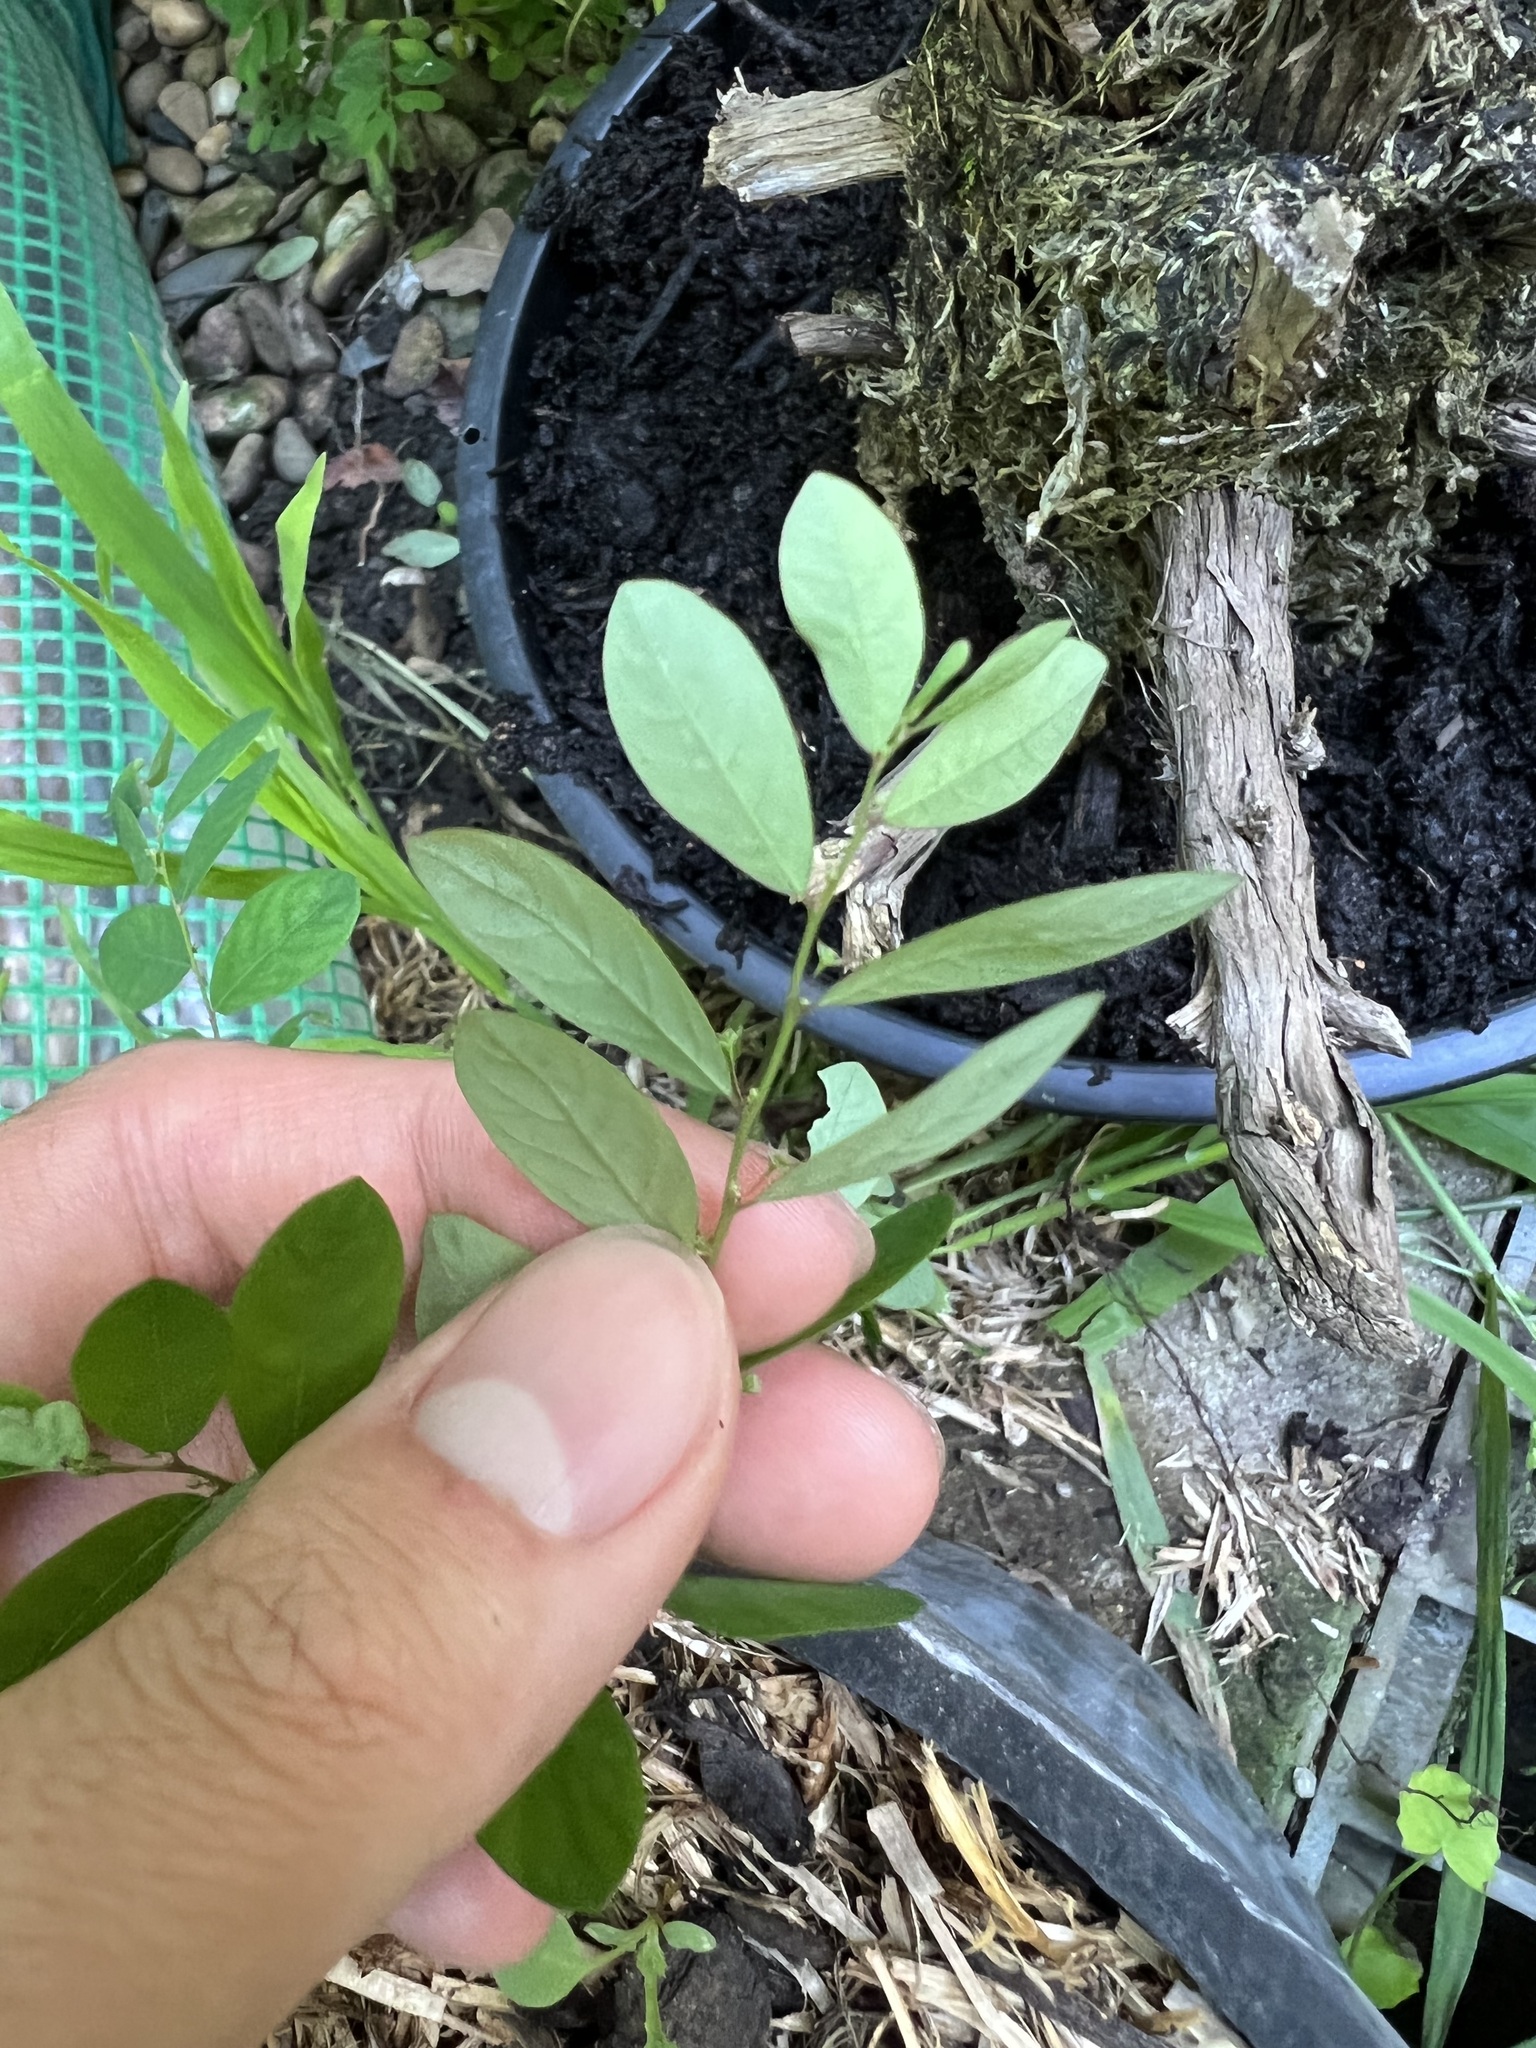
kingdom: Plantae
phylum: Tracheophyta
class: Magnoliopsida
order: Malpighiales
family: Phyllanthaceae
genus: Phyllanthus
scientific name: Phyllanthus tenellus
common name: Mascarene island leaf-flower
